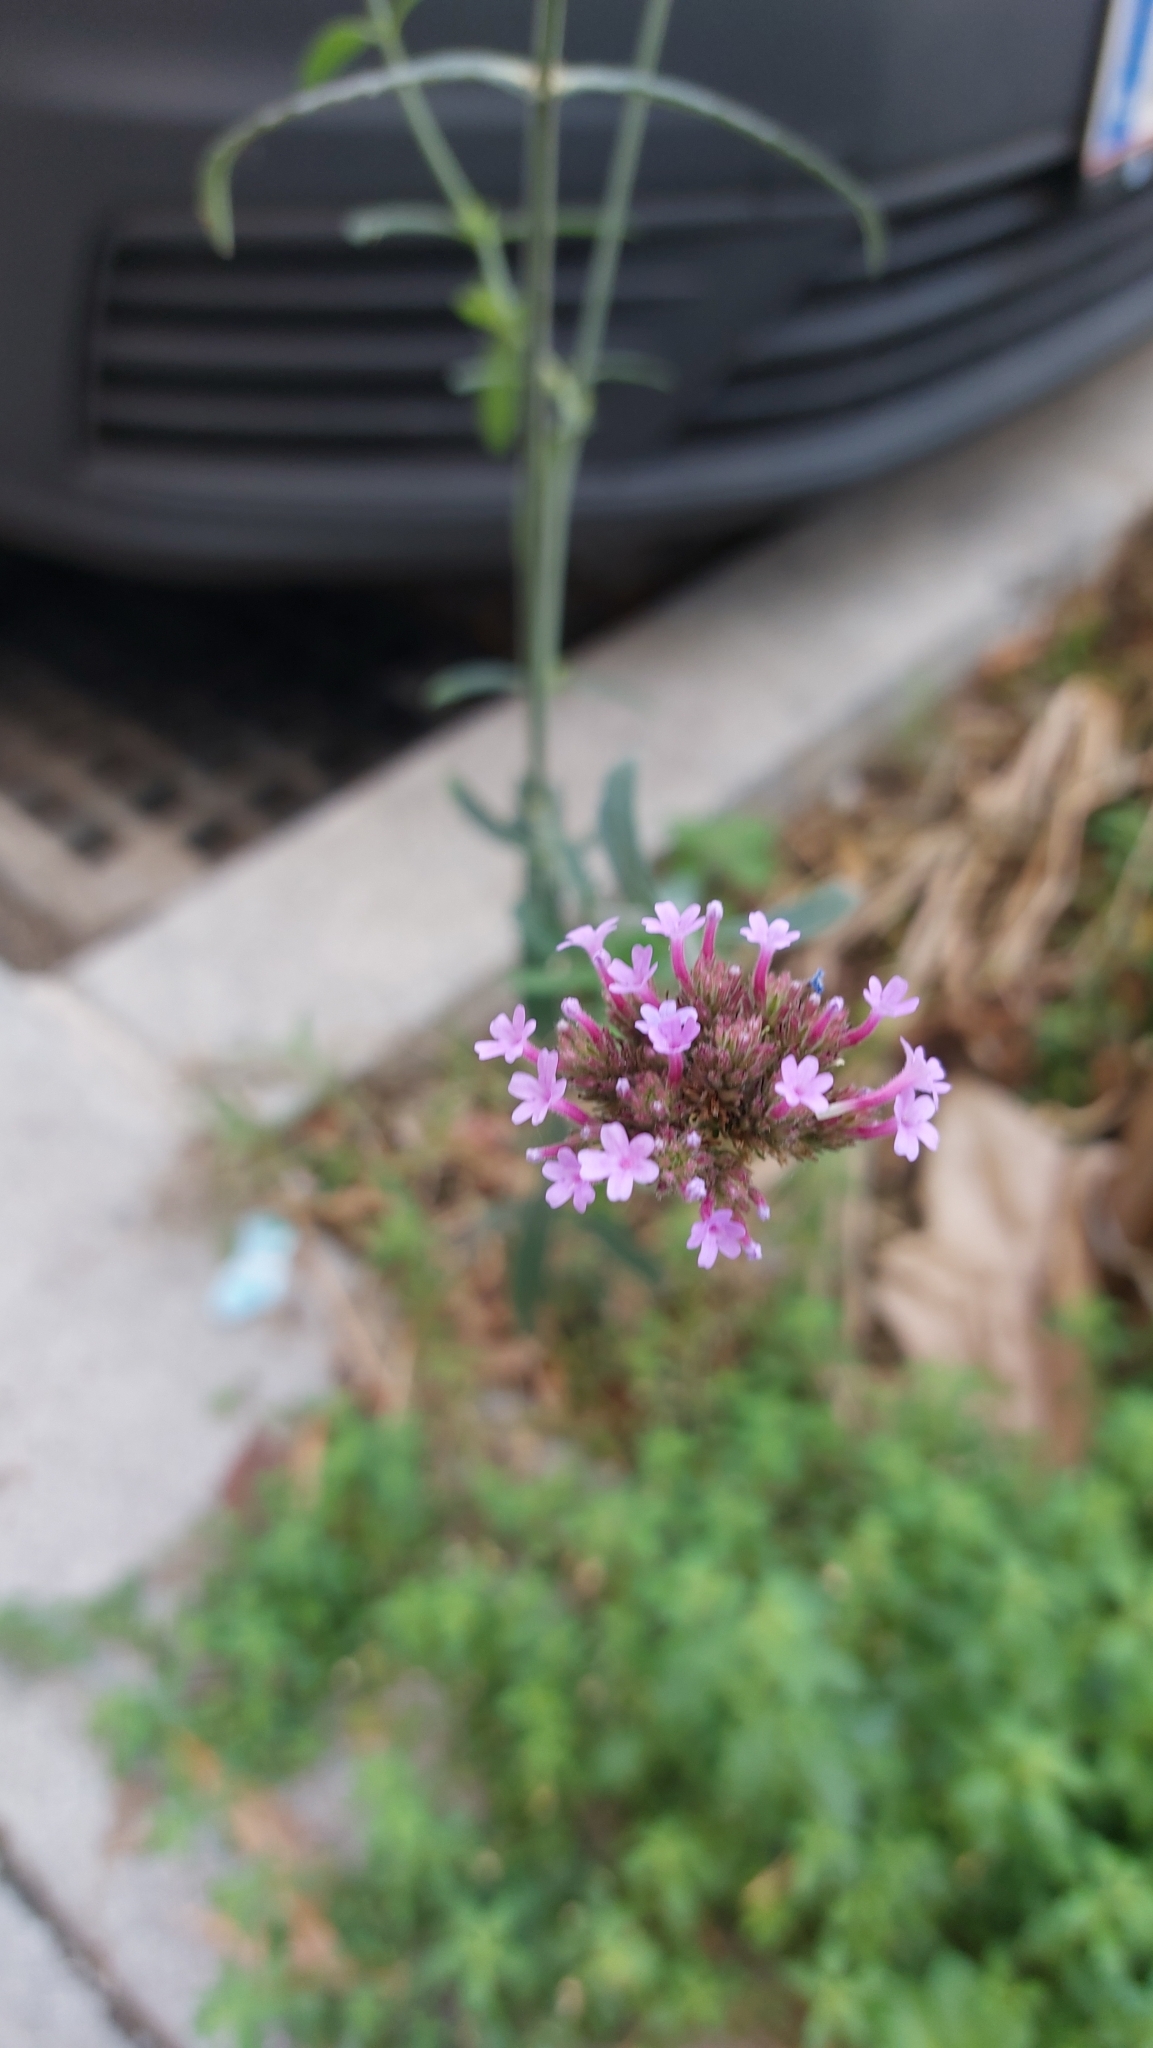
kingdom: Plantae
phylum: Tracheophyta
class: Magnoliopsida
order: Lamiales
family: Verbenaceae
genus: Verbena
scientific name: Verbena bonariensis
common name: Purpletop vervain
